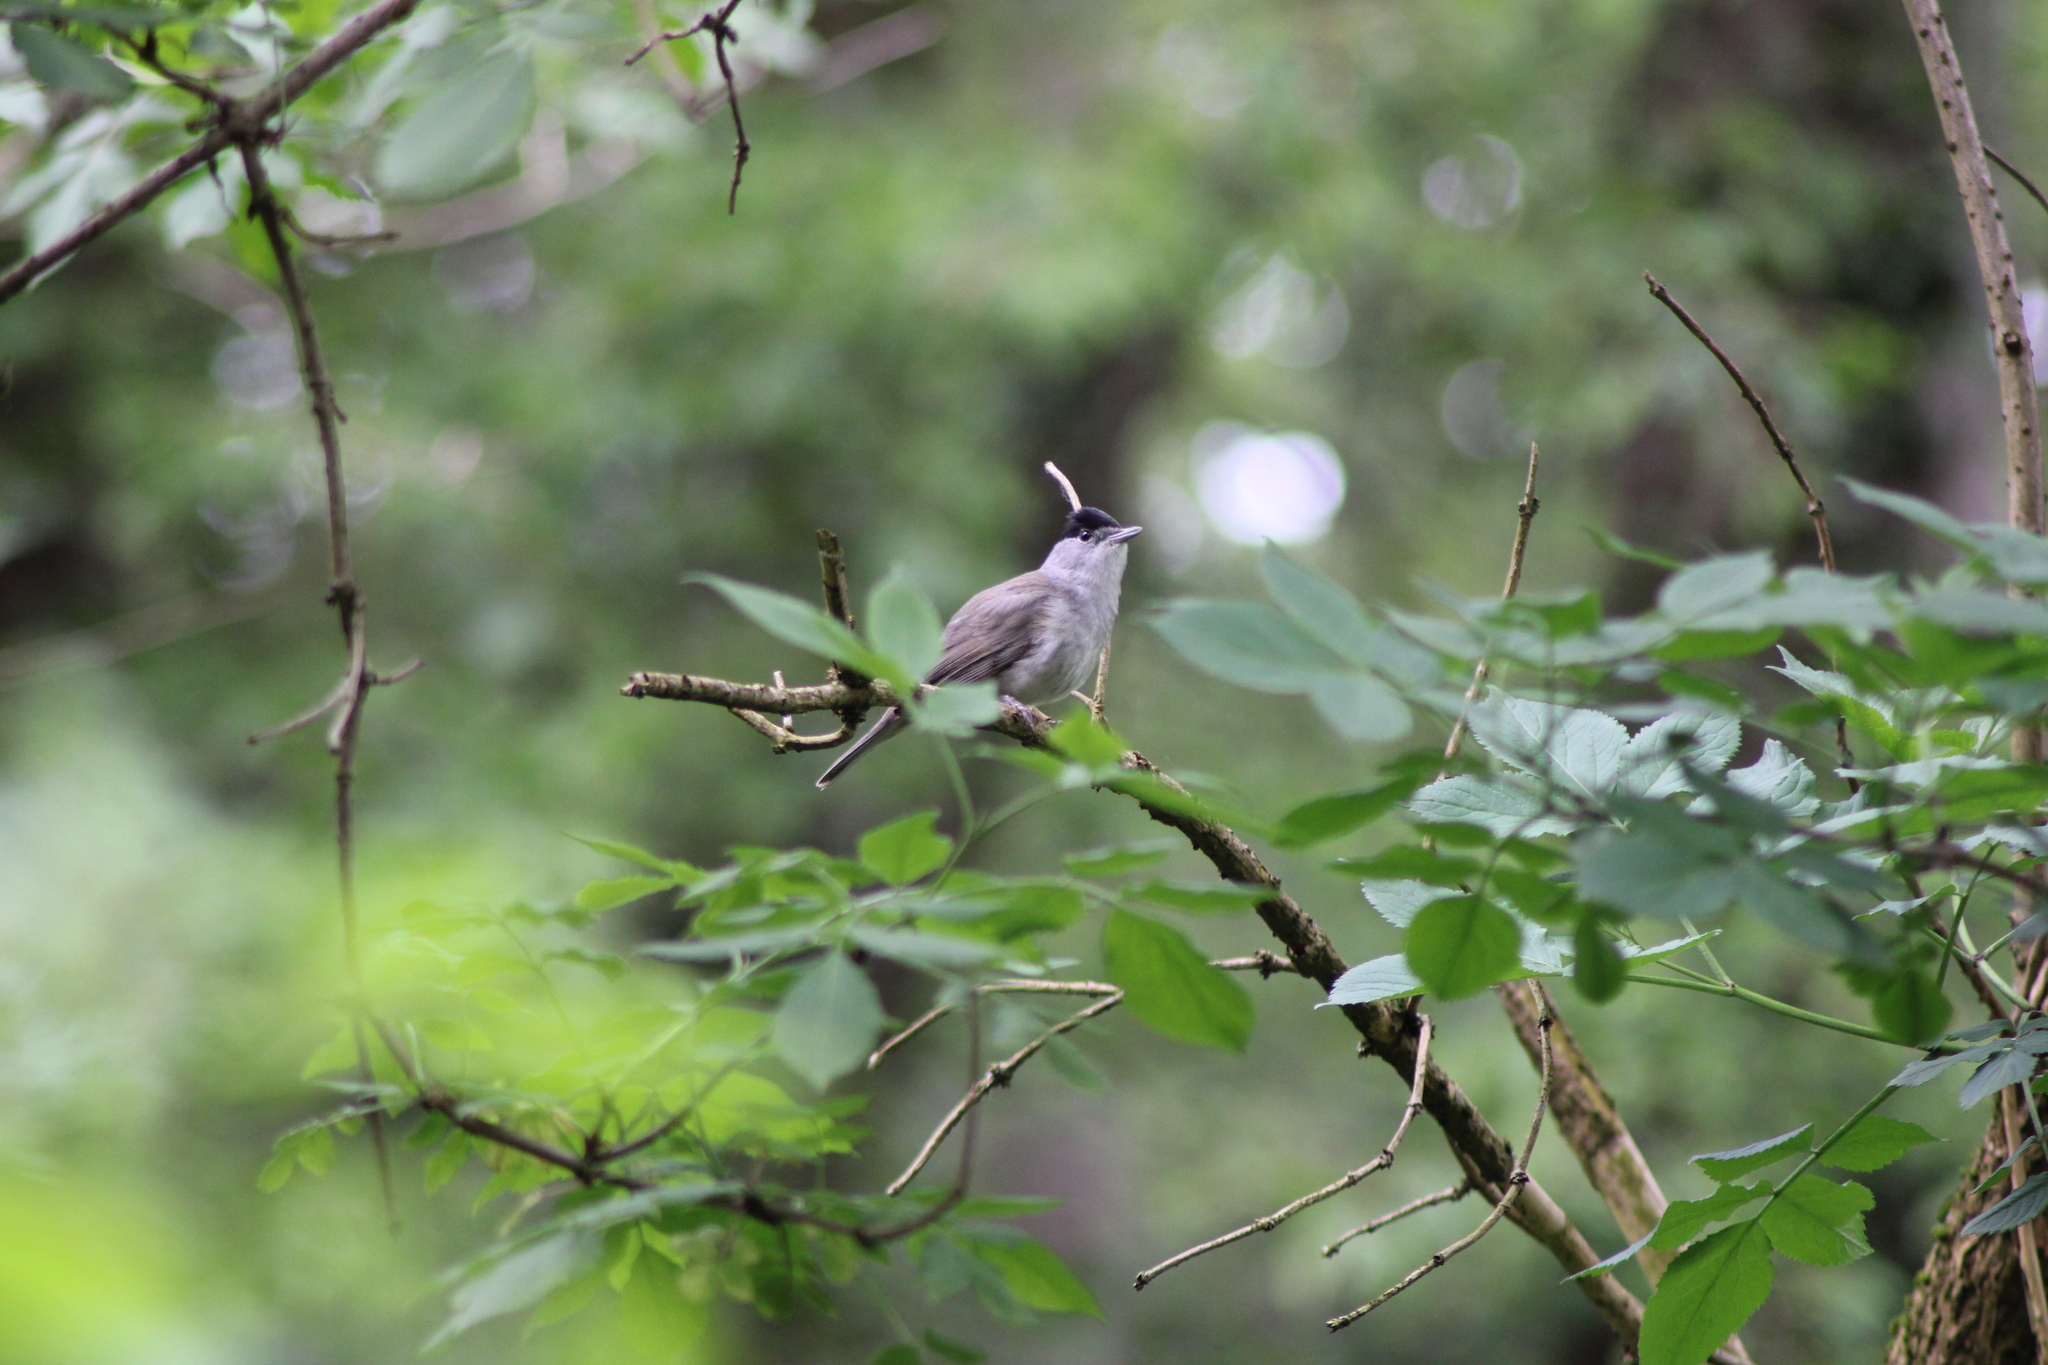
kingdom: Animalia
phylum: Chordata
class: Aves
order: Passeriformes
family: Sylviidae
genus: Sylvia
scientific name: Sylvia atricapilla
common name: Eurasian blackcap
